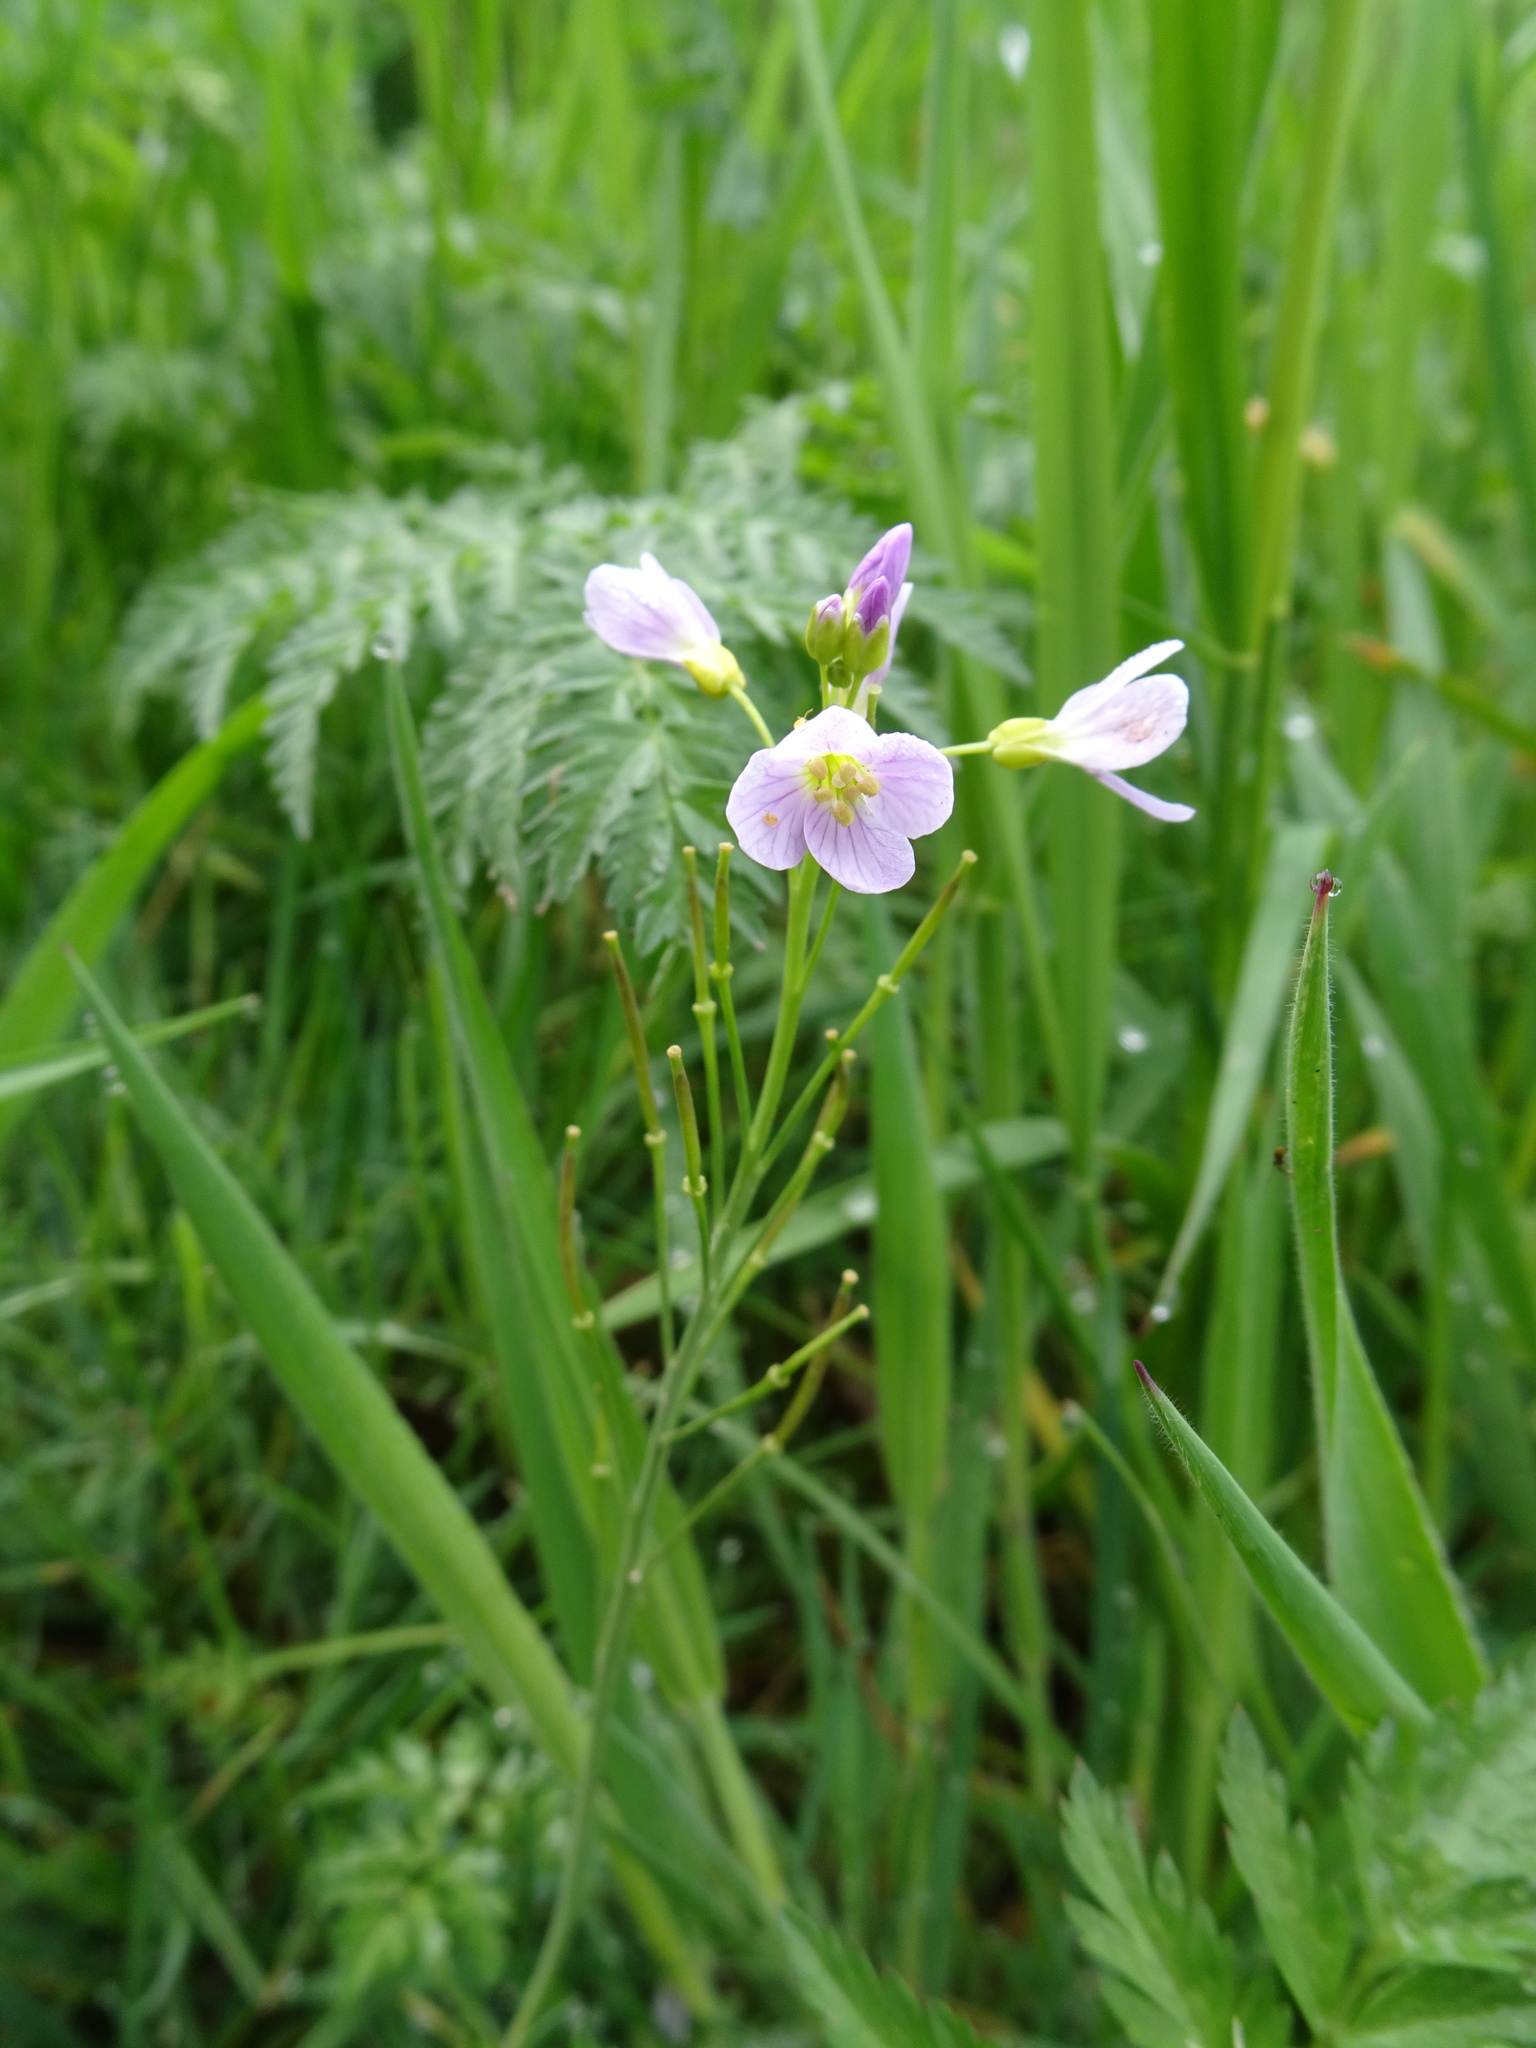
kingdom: Plantae
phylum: Tracheophyta
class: Magnoliopsida
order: Brassicales
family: Brassicaceae
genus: Cardamine
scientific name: Cardamine pratensis
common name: Cuckoo flower
